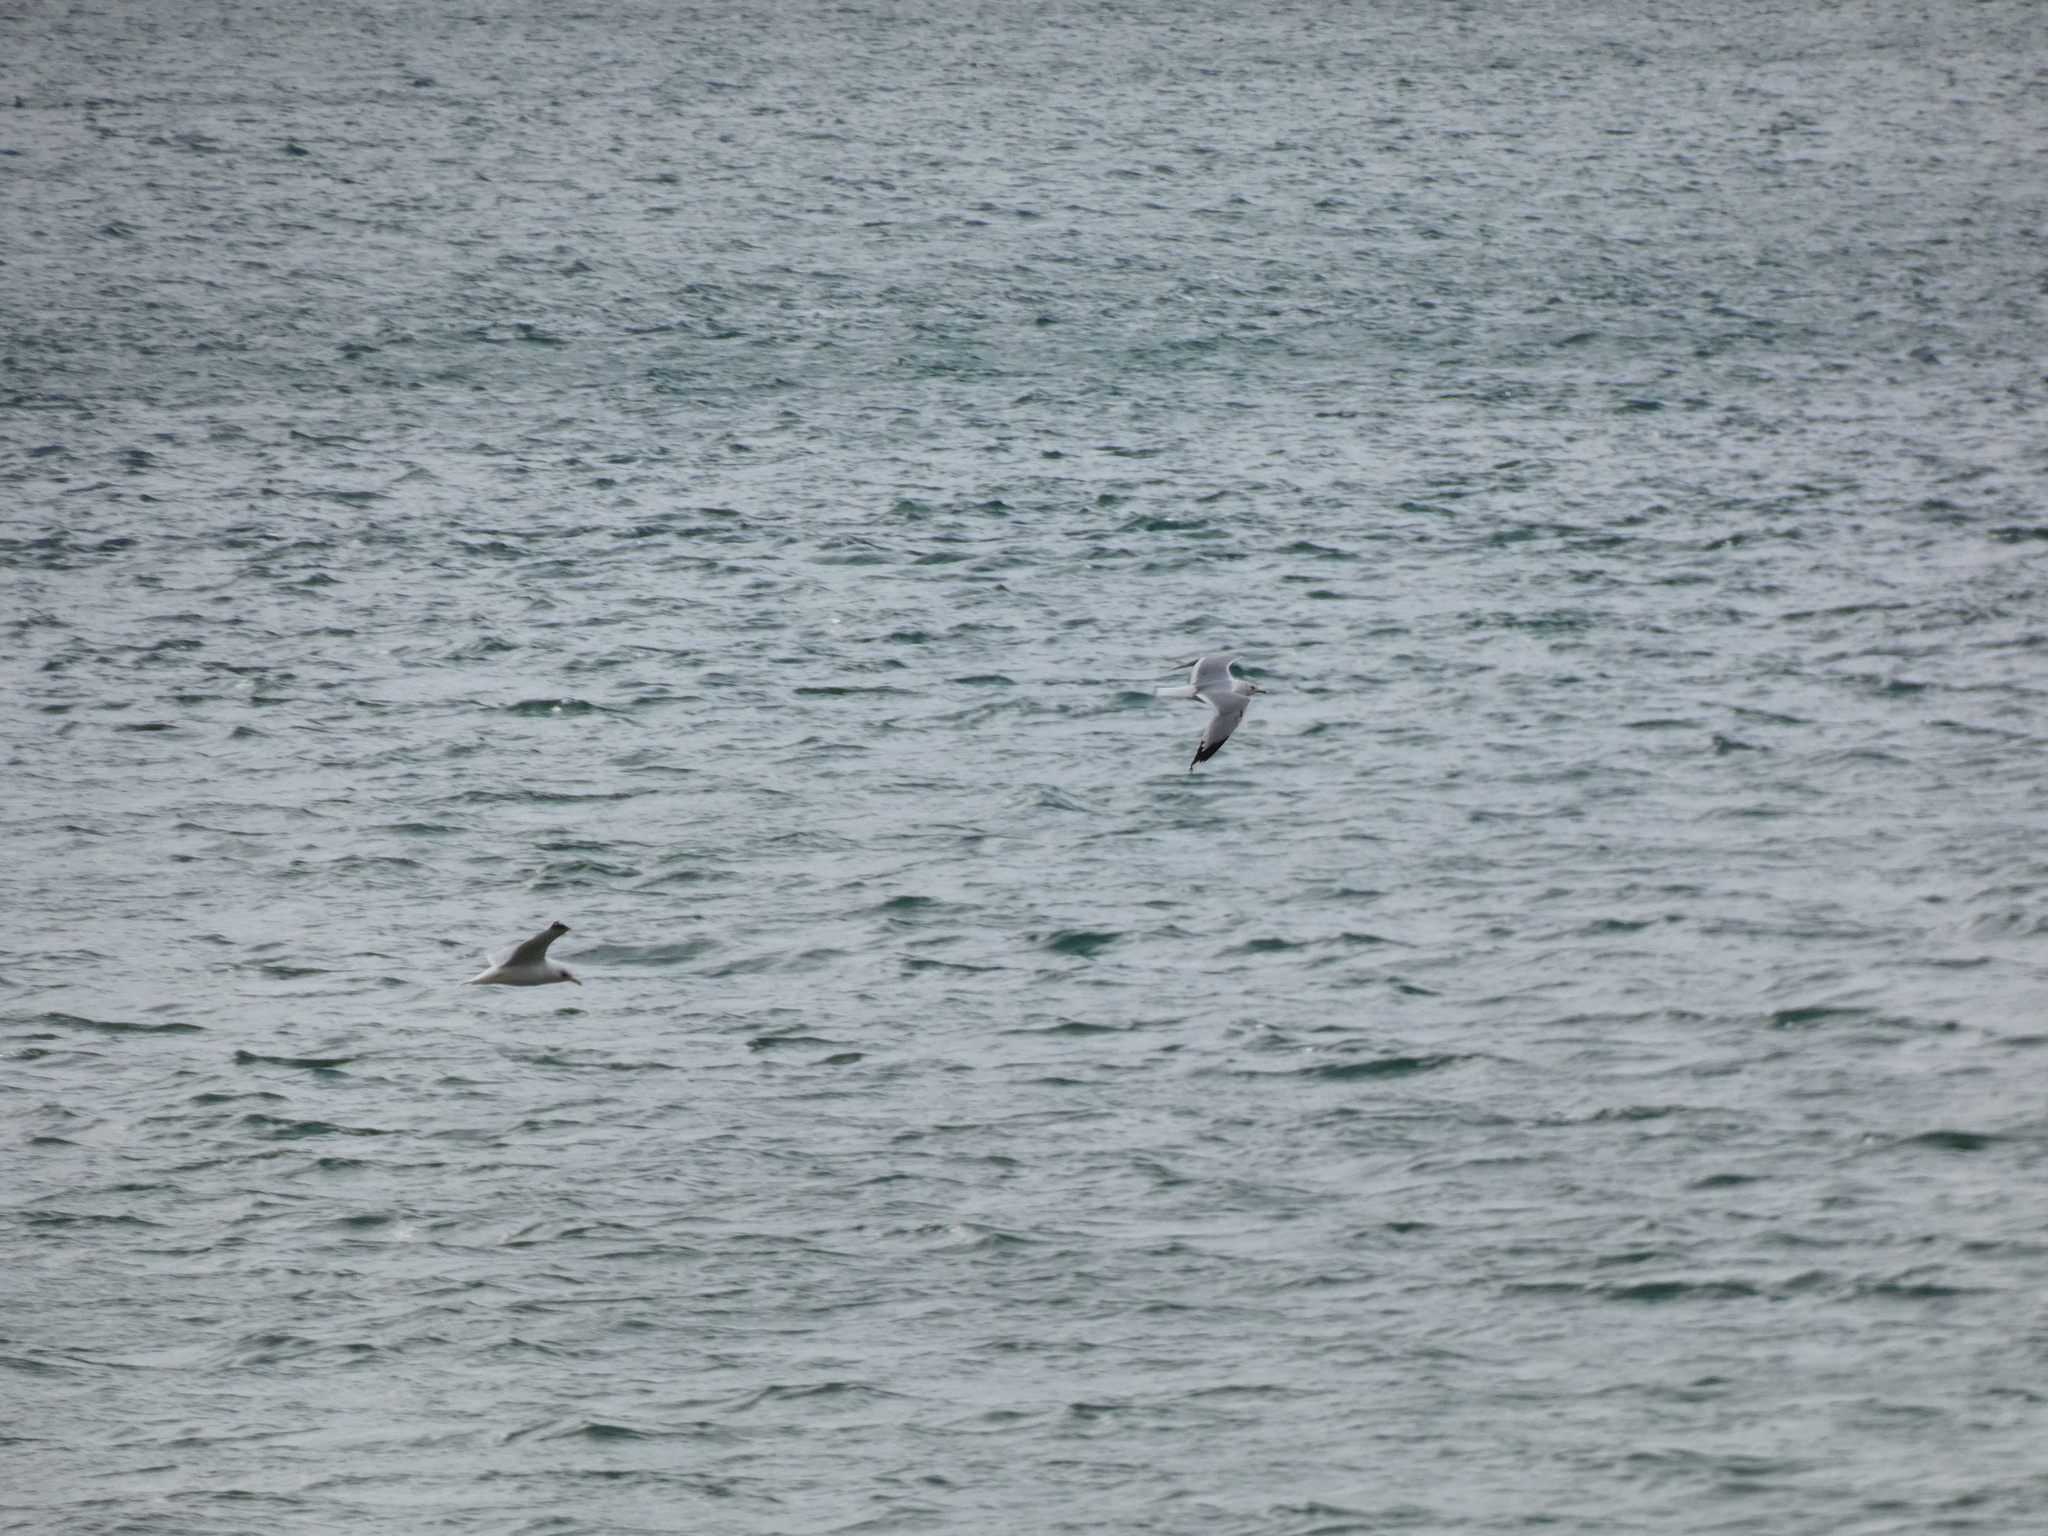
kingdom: Animalia
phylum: Chordata
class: Aves
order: Charadriiformes
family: Laridae
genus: Larus
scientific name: Larus canus
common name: Mew gull
